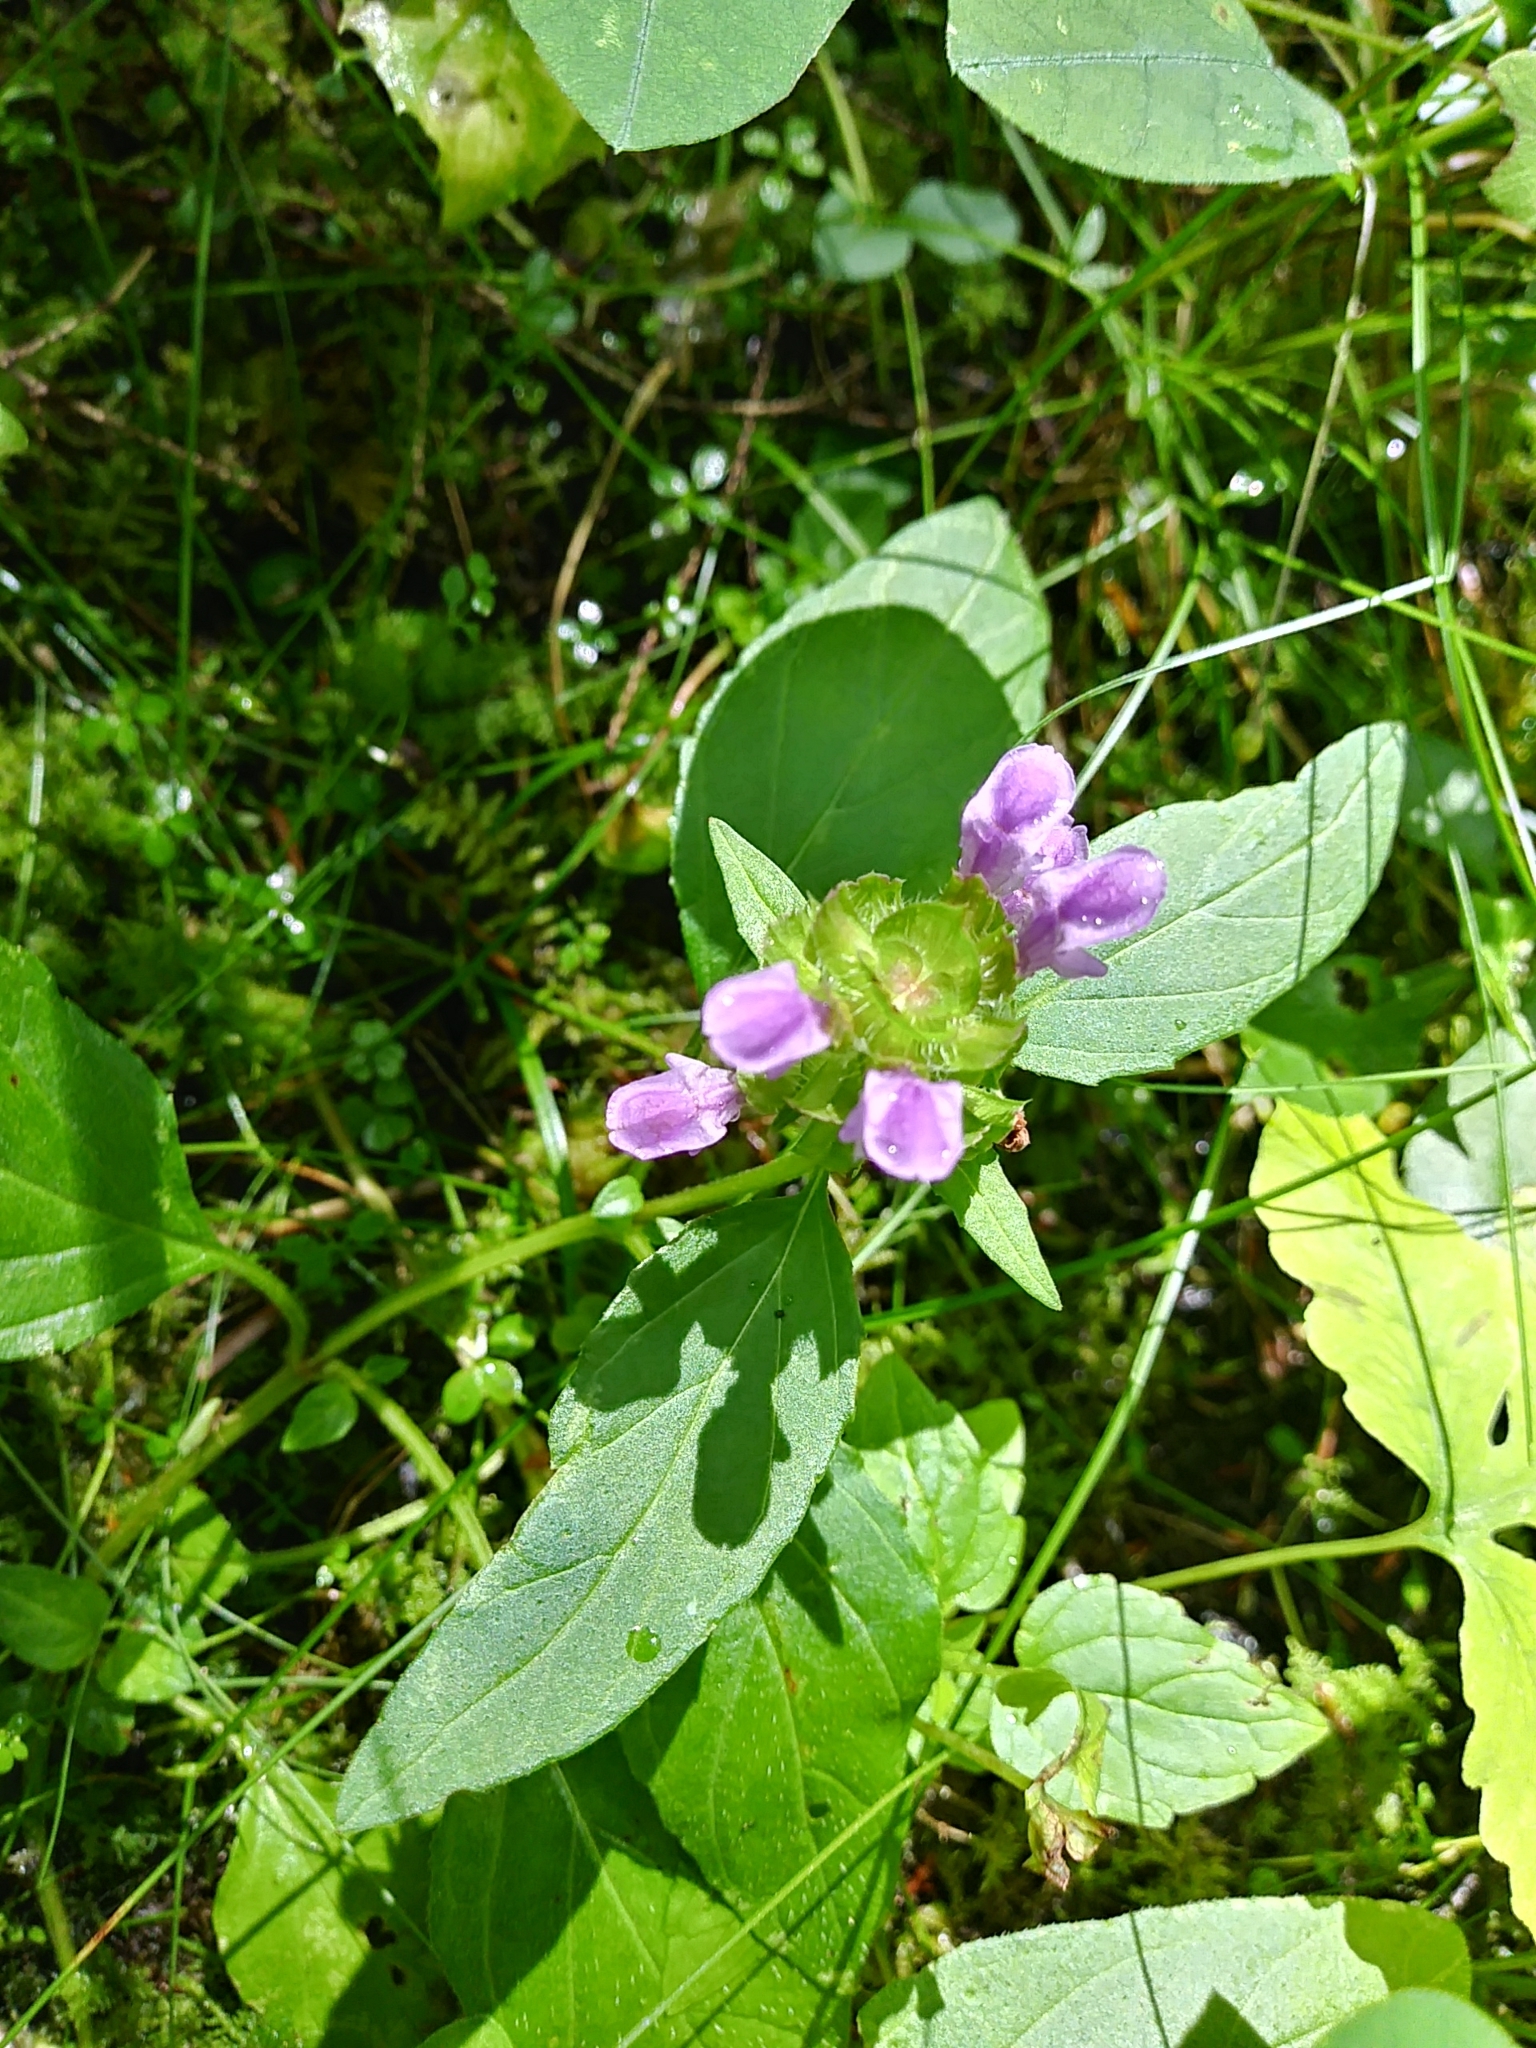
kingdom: Plantae
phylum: Tracheophyta
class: Magnoliopsida
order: Lamiales
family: Lamiaceae
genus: Prunella
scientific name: Prunella vulgaris
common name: Heal-all
